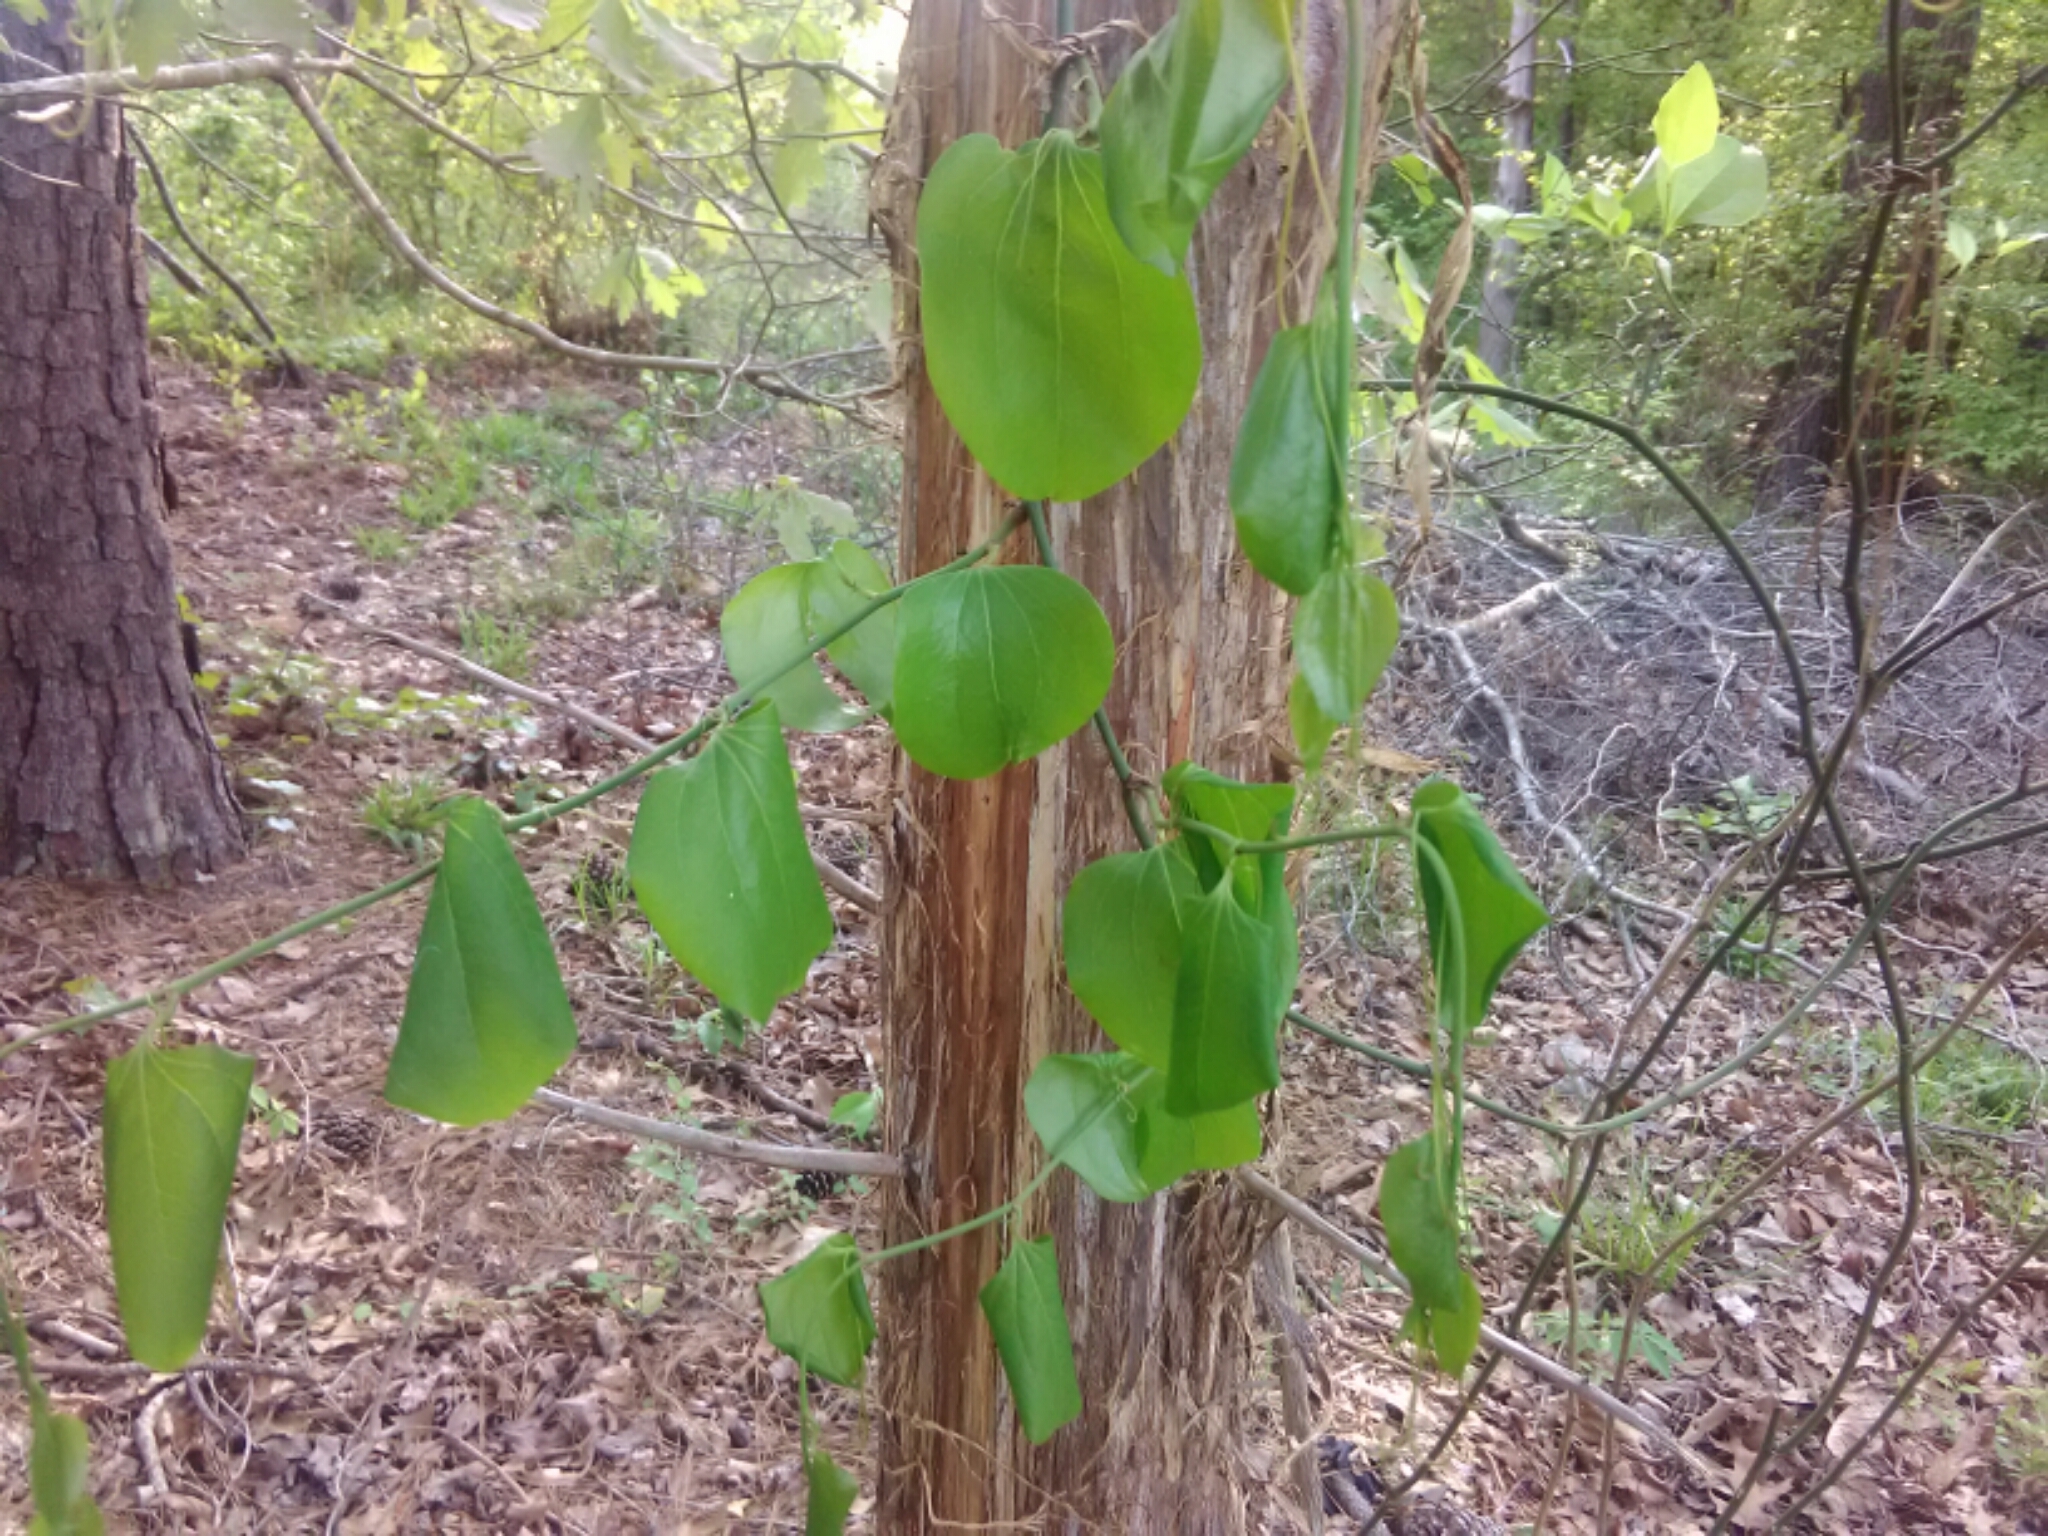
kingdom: Plantae
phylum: Tracheophyta
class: Liliopsida
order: Liliales
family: Smilacaceae
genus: Smilax
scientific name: Smilax glauca
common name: Cat greenbrier
